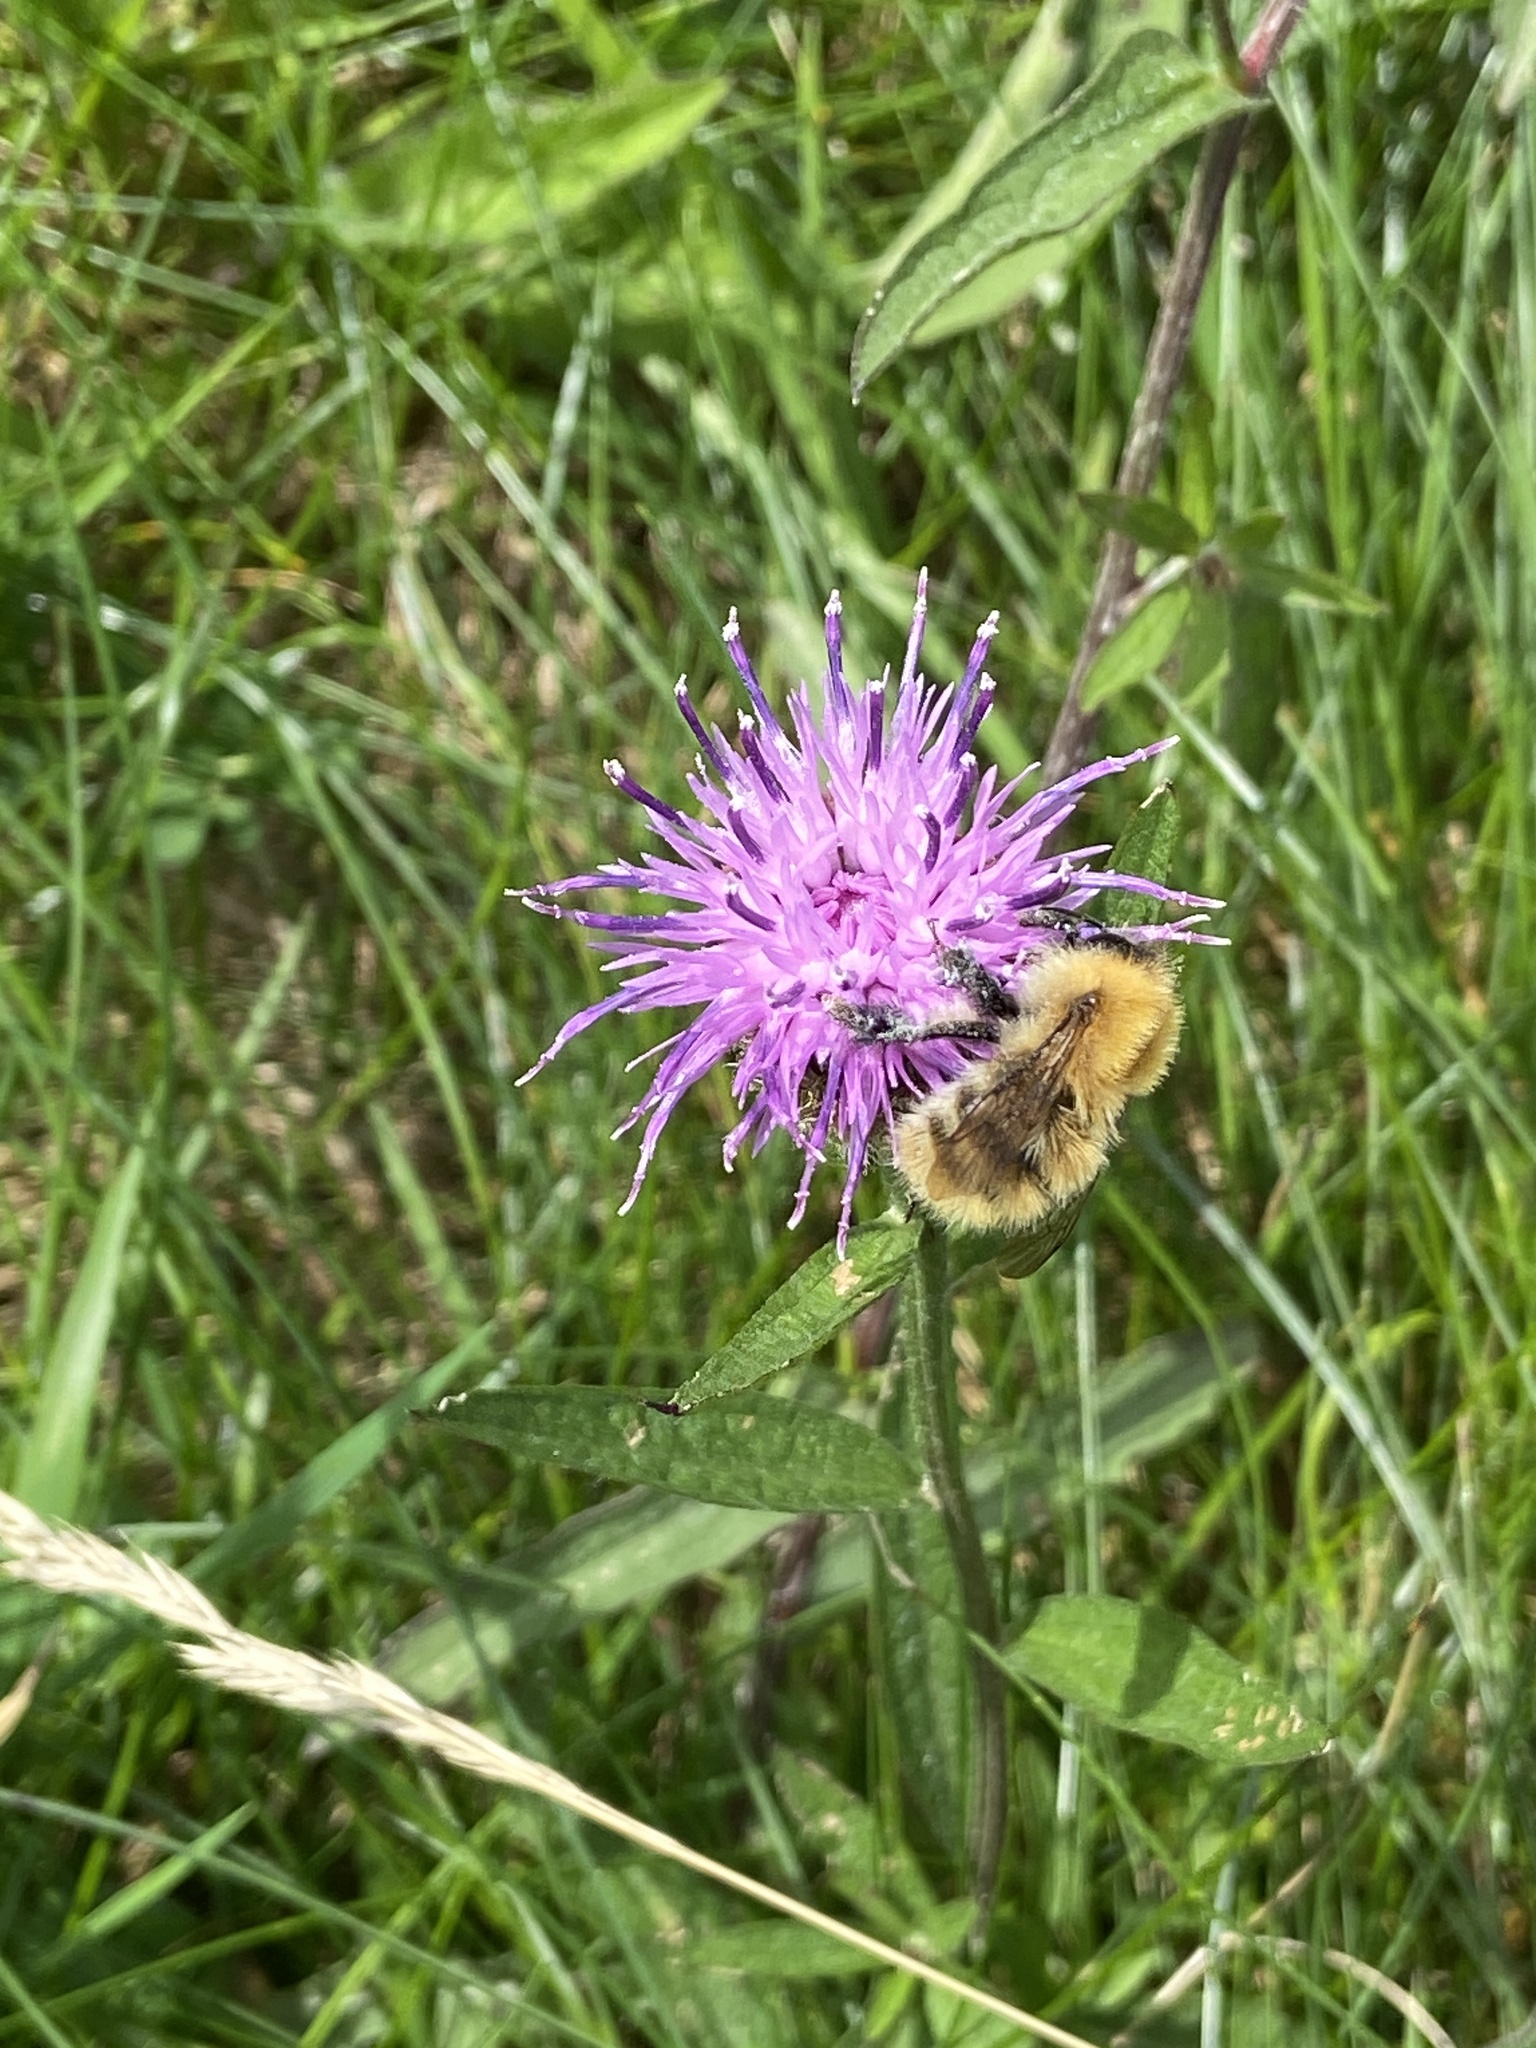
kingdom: Animalia
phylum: Arthropoda
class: Insecta
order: Hymenoptera
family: Apidae
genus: Bombus
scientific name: Bombus pascuorum
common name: Common carder bee
